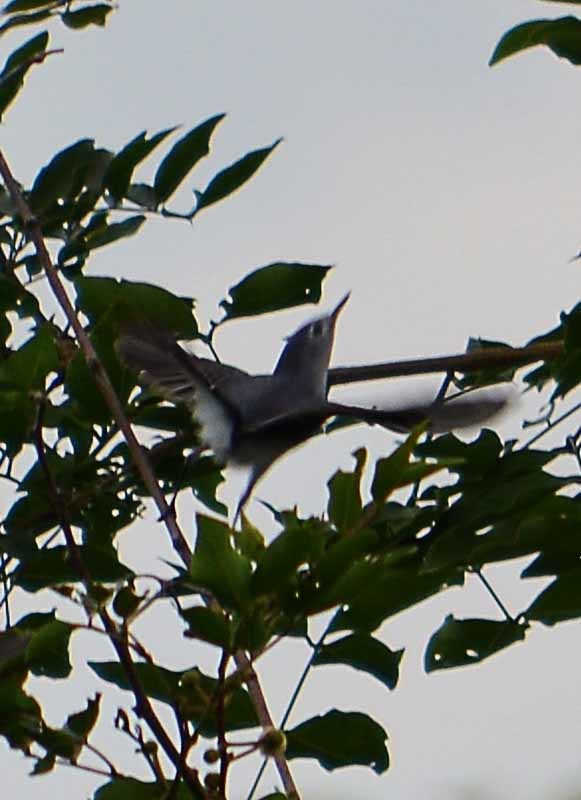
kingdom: Animalia
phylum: Chordata
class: Aves
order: Passeriformes
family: Polioptilidae
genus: Polioptila
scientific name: Polioptila caerulea
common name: Blue-gray gnatcatcher
